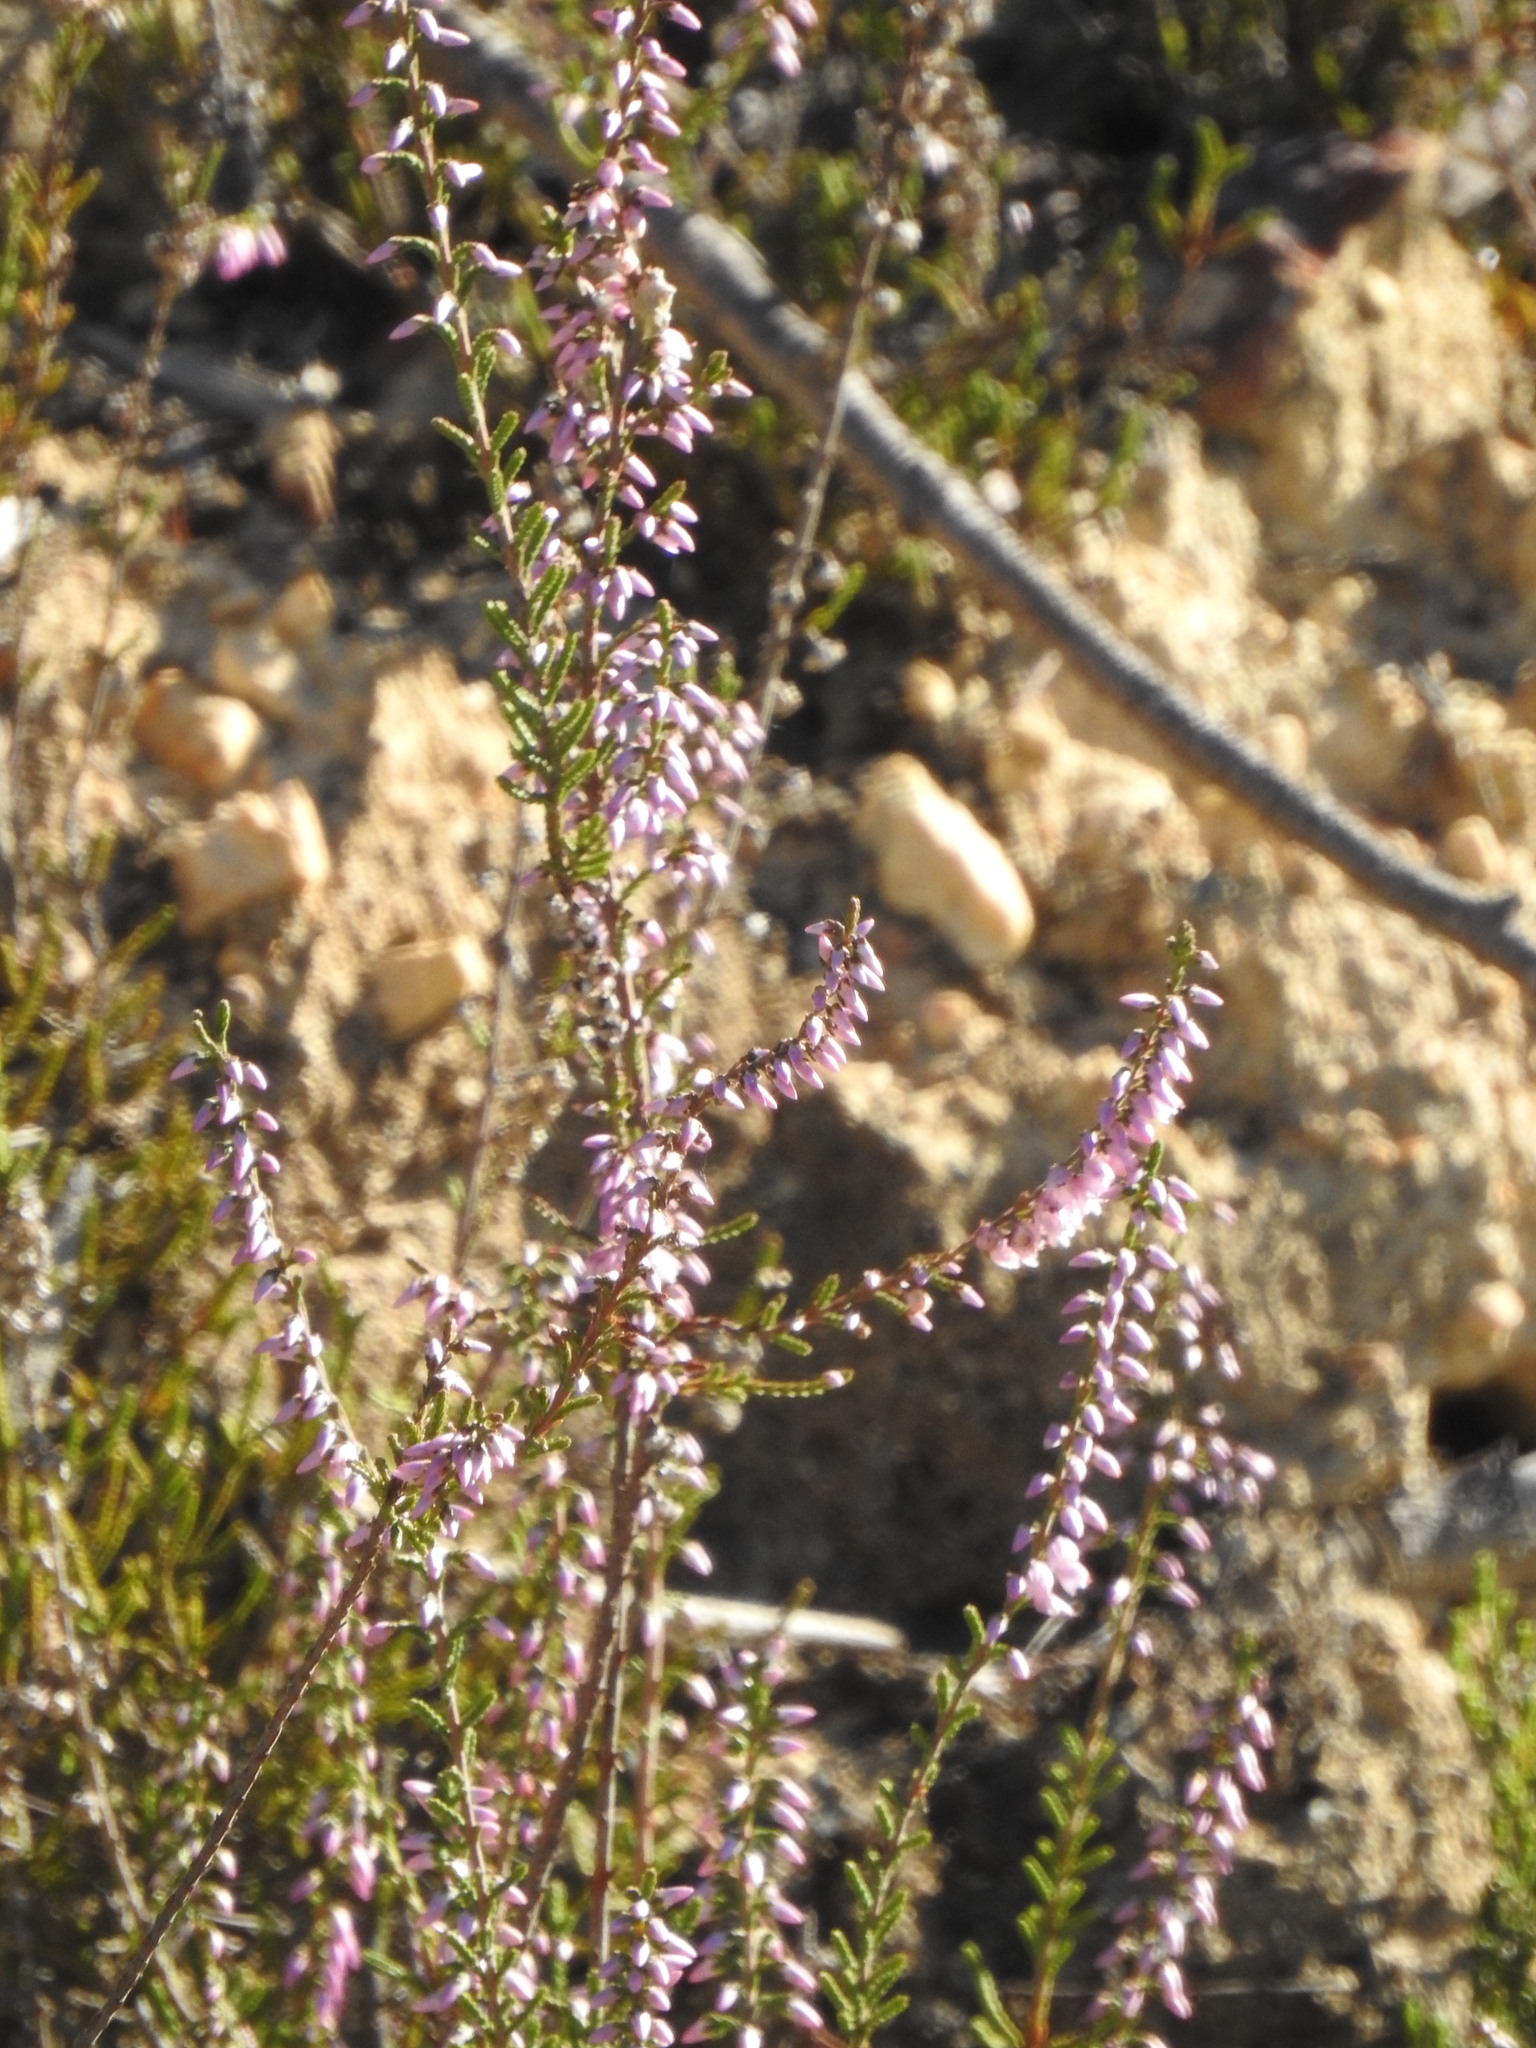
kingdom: Plantae
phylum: Tracheophyta
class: Magnoliopsida
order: Ericales
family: Ericaceae
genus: Calluna
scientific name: Calluna vulgaris
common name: Heather
